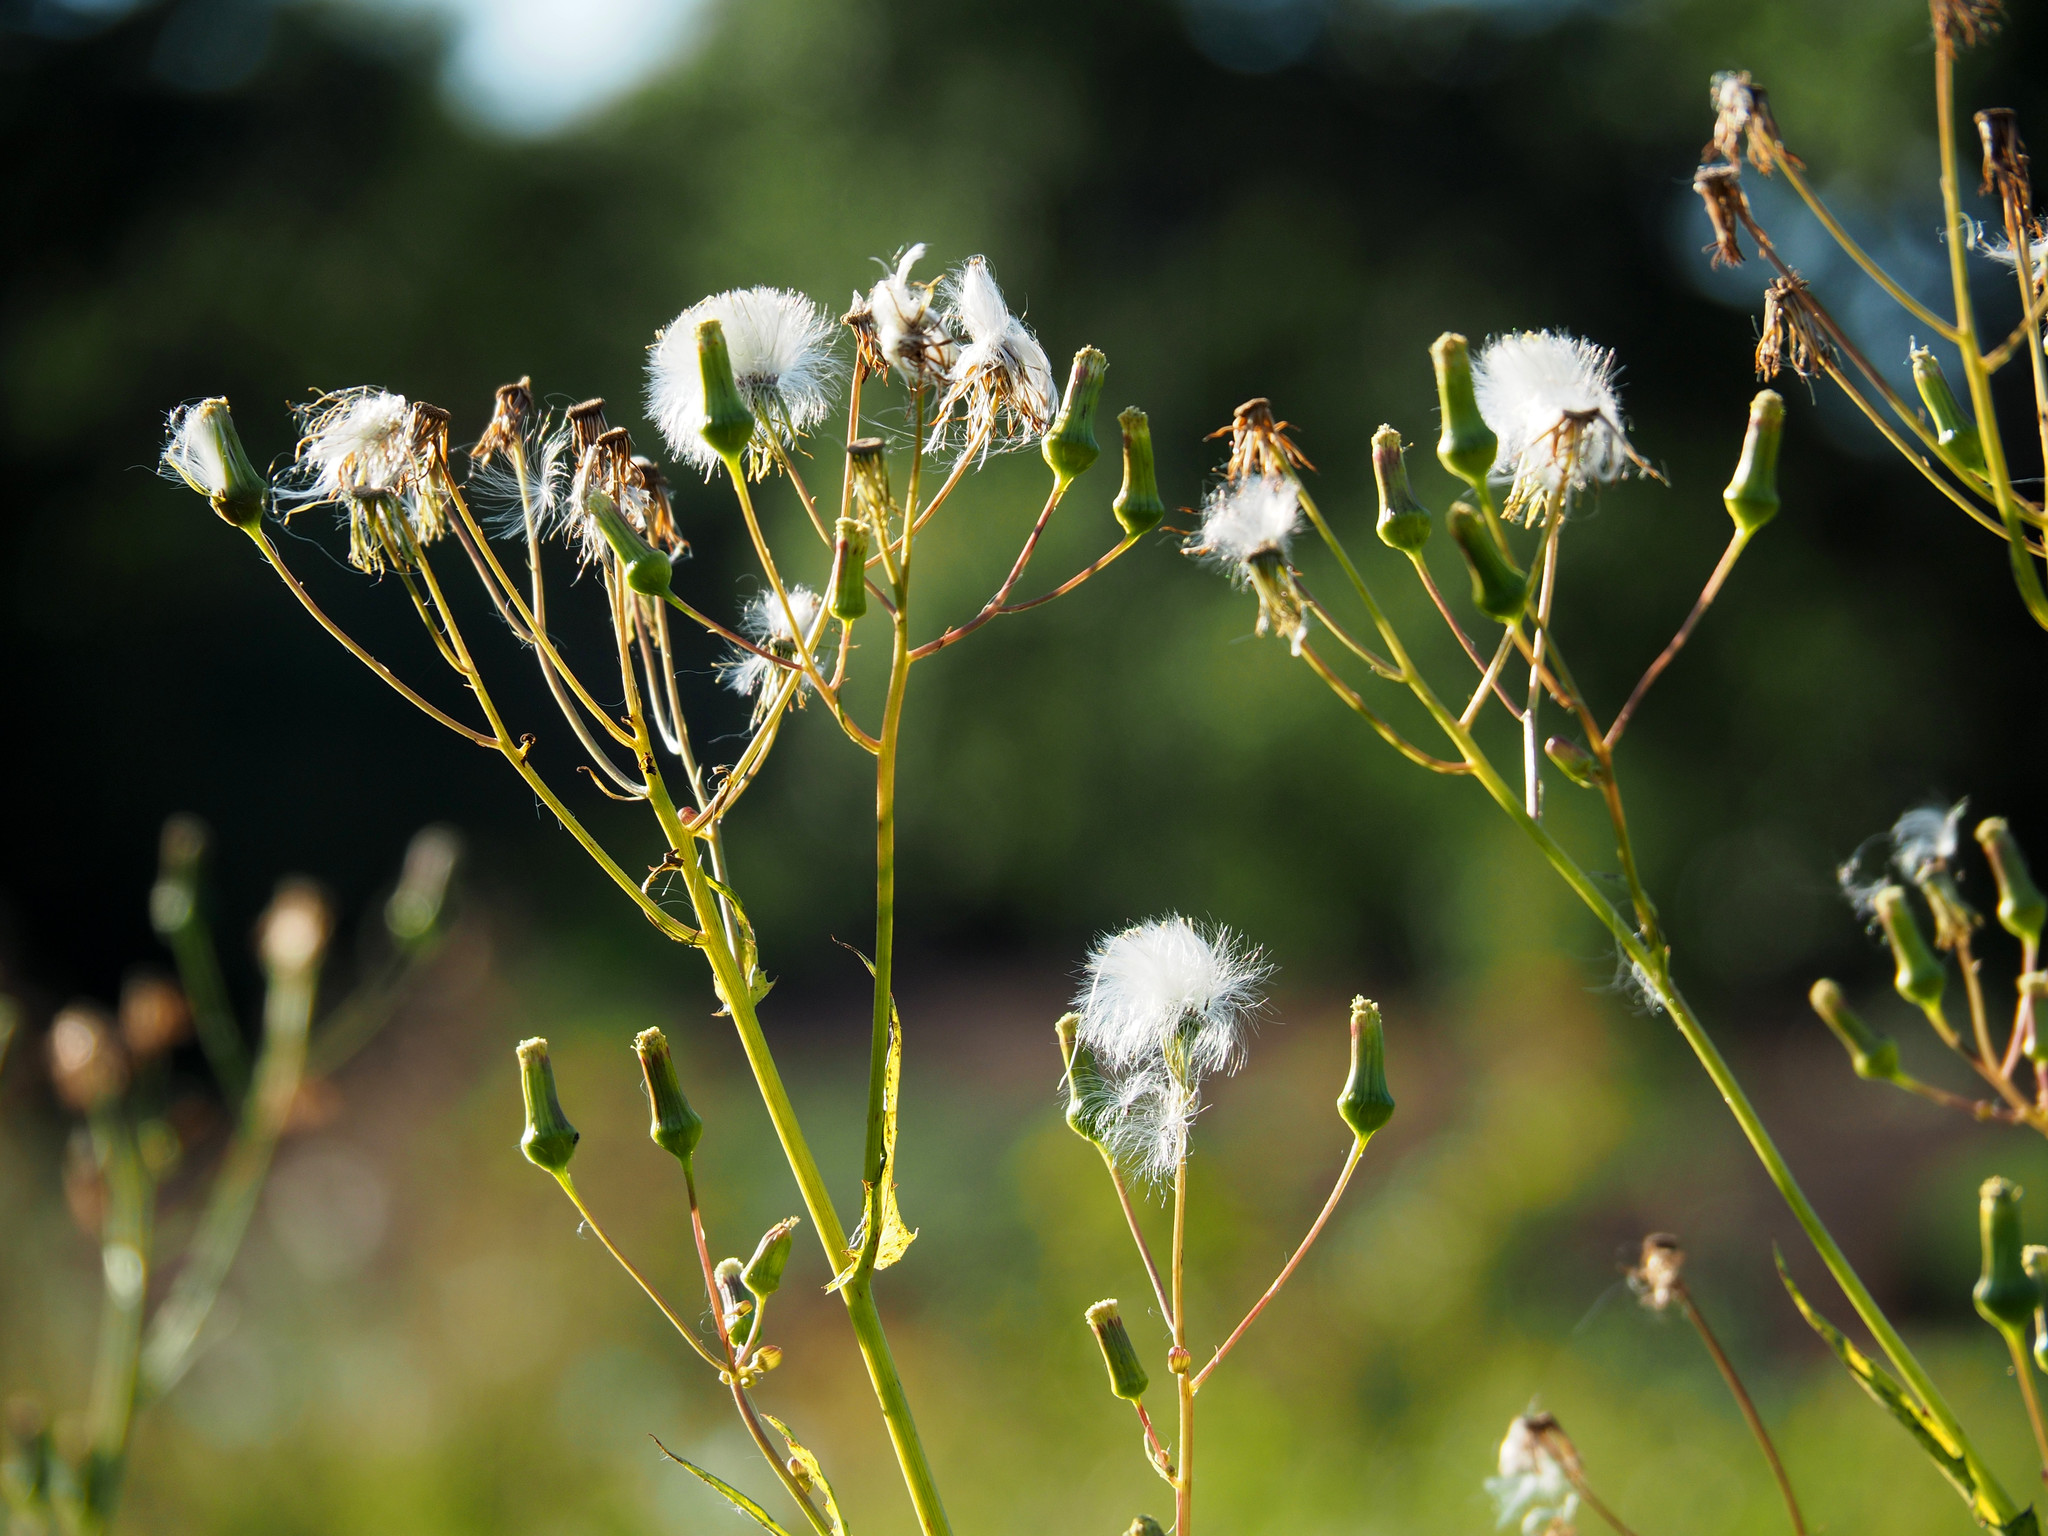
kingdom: Plantae
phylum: Tracheophyta
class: Magnoliopsida
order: Asterales
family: Asteraceae
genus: Erechtites
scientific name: Erechtites hieraciifolius
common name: American burnweed
